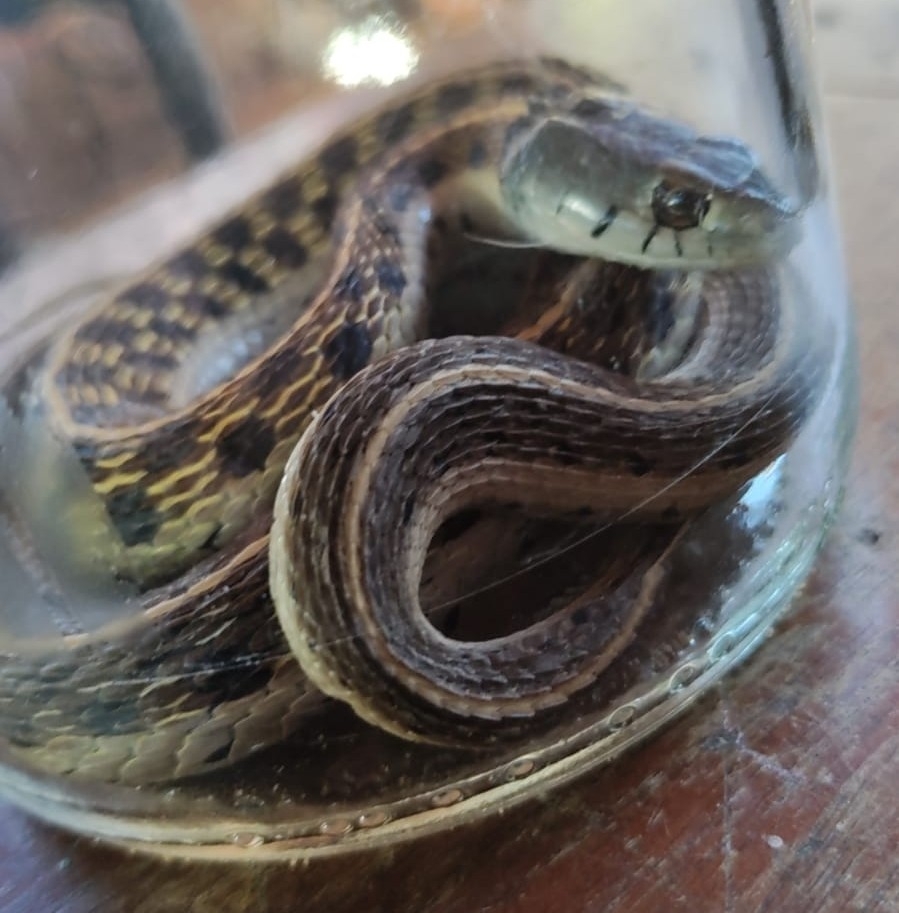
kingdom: Animalia
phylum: Chordata
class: Squamata
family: Colubridae
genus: Thamnophis
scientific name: Thamnophis cyrtopsis
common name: Black-necked gartersnake
